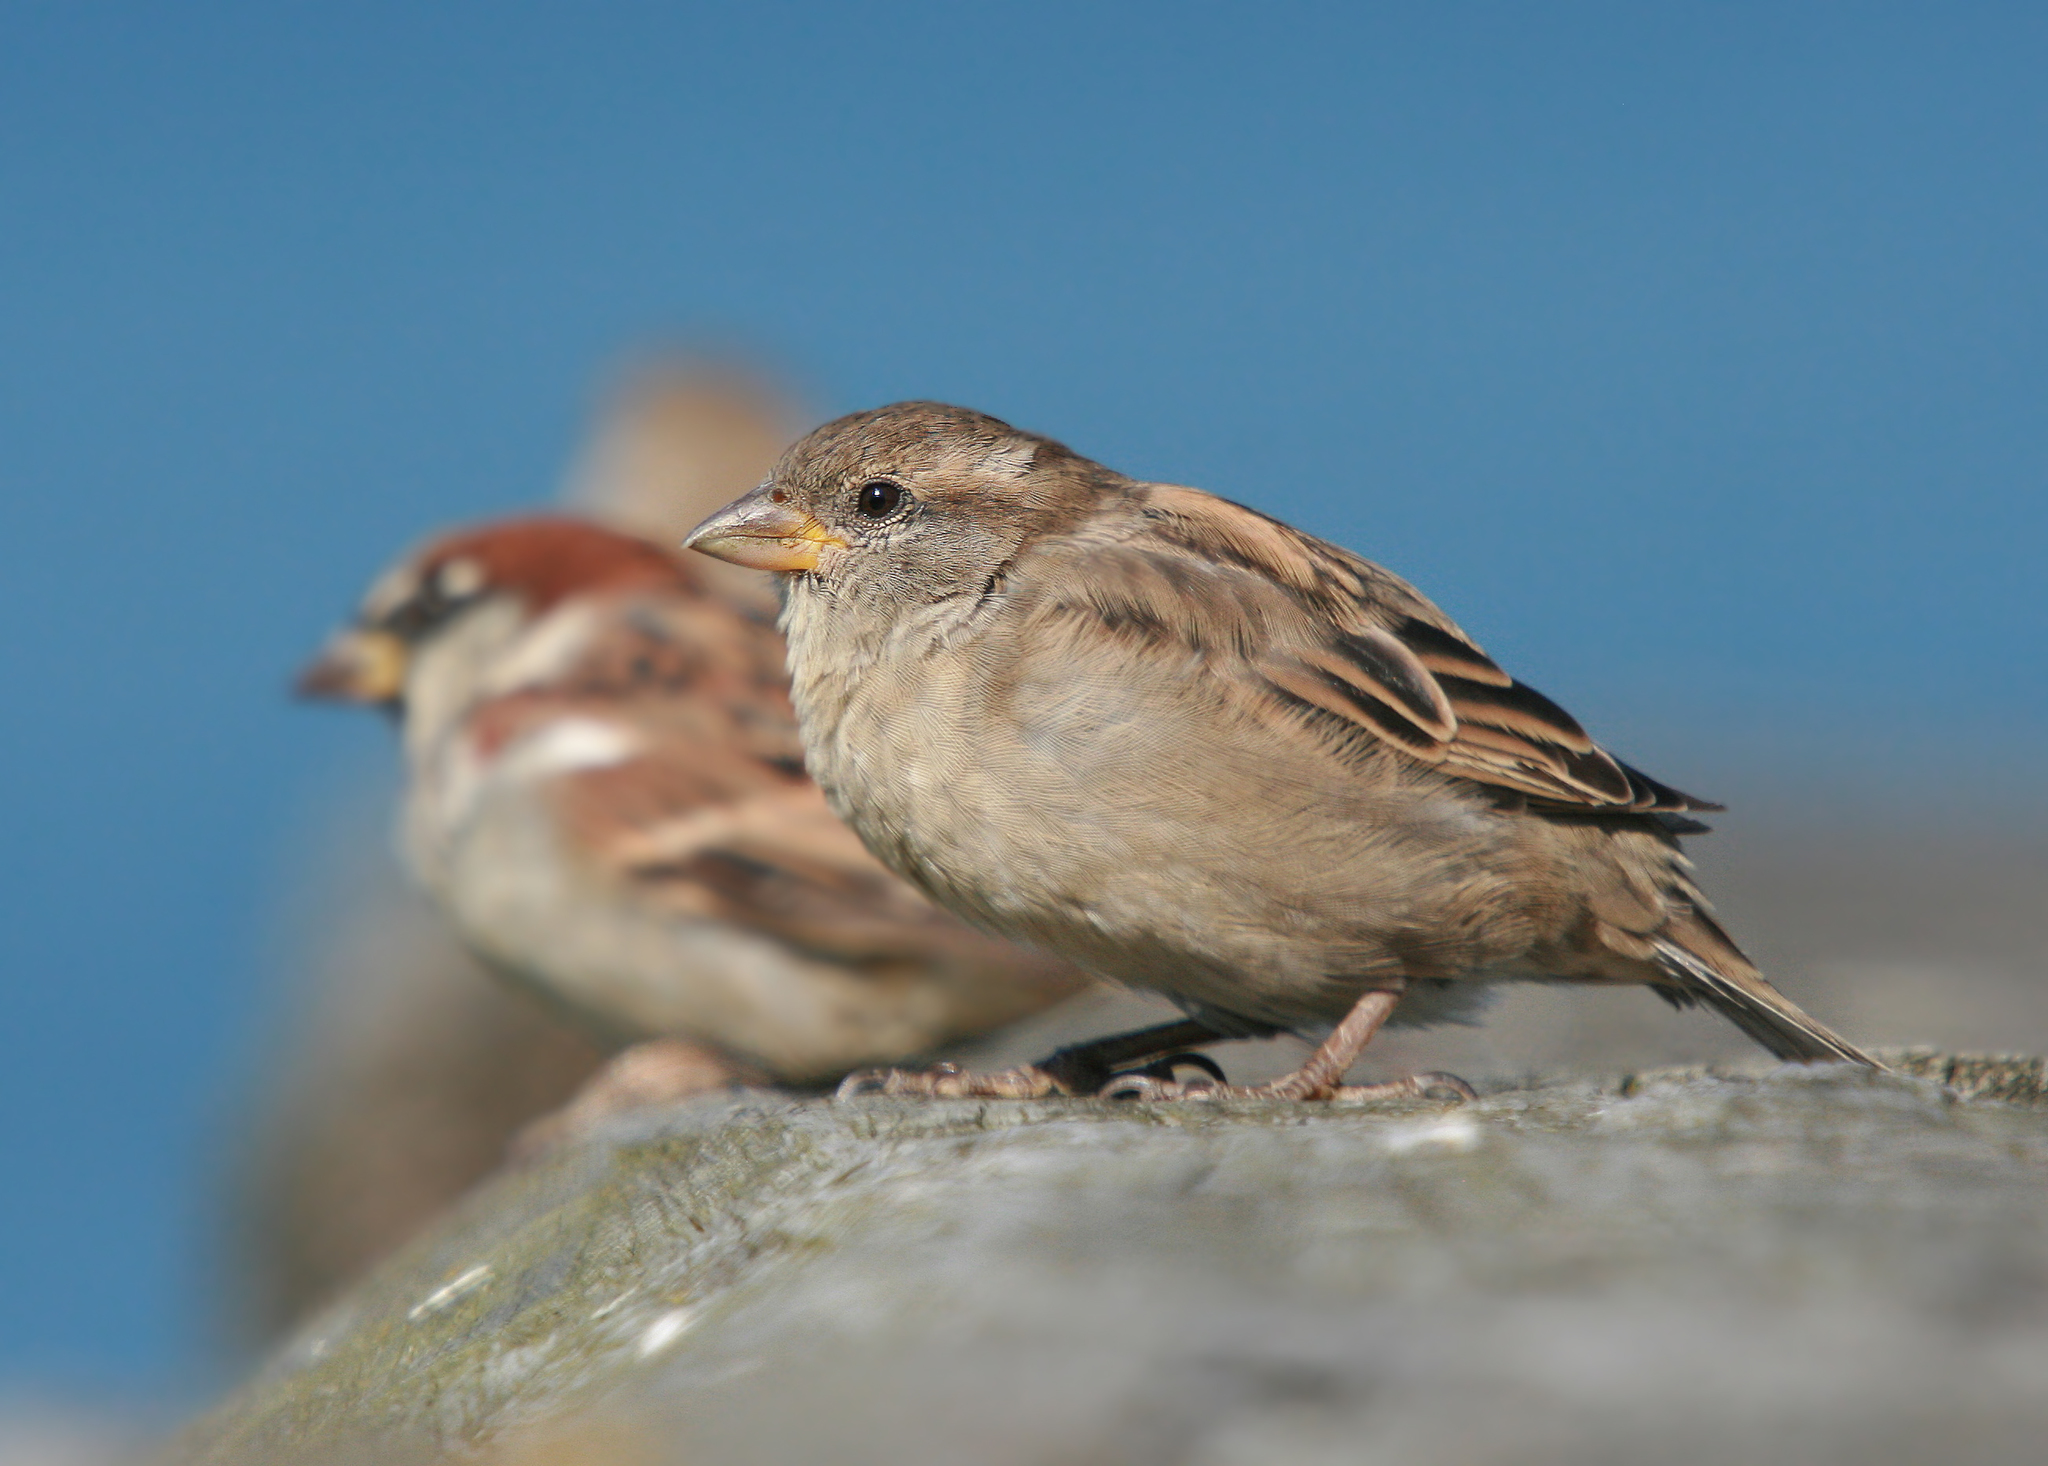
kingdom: Animalia
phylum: Chordata
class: Aves
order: Passeriformes
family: Passeridae
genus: Passer
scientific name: Passer domesticus
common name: House sparrow
